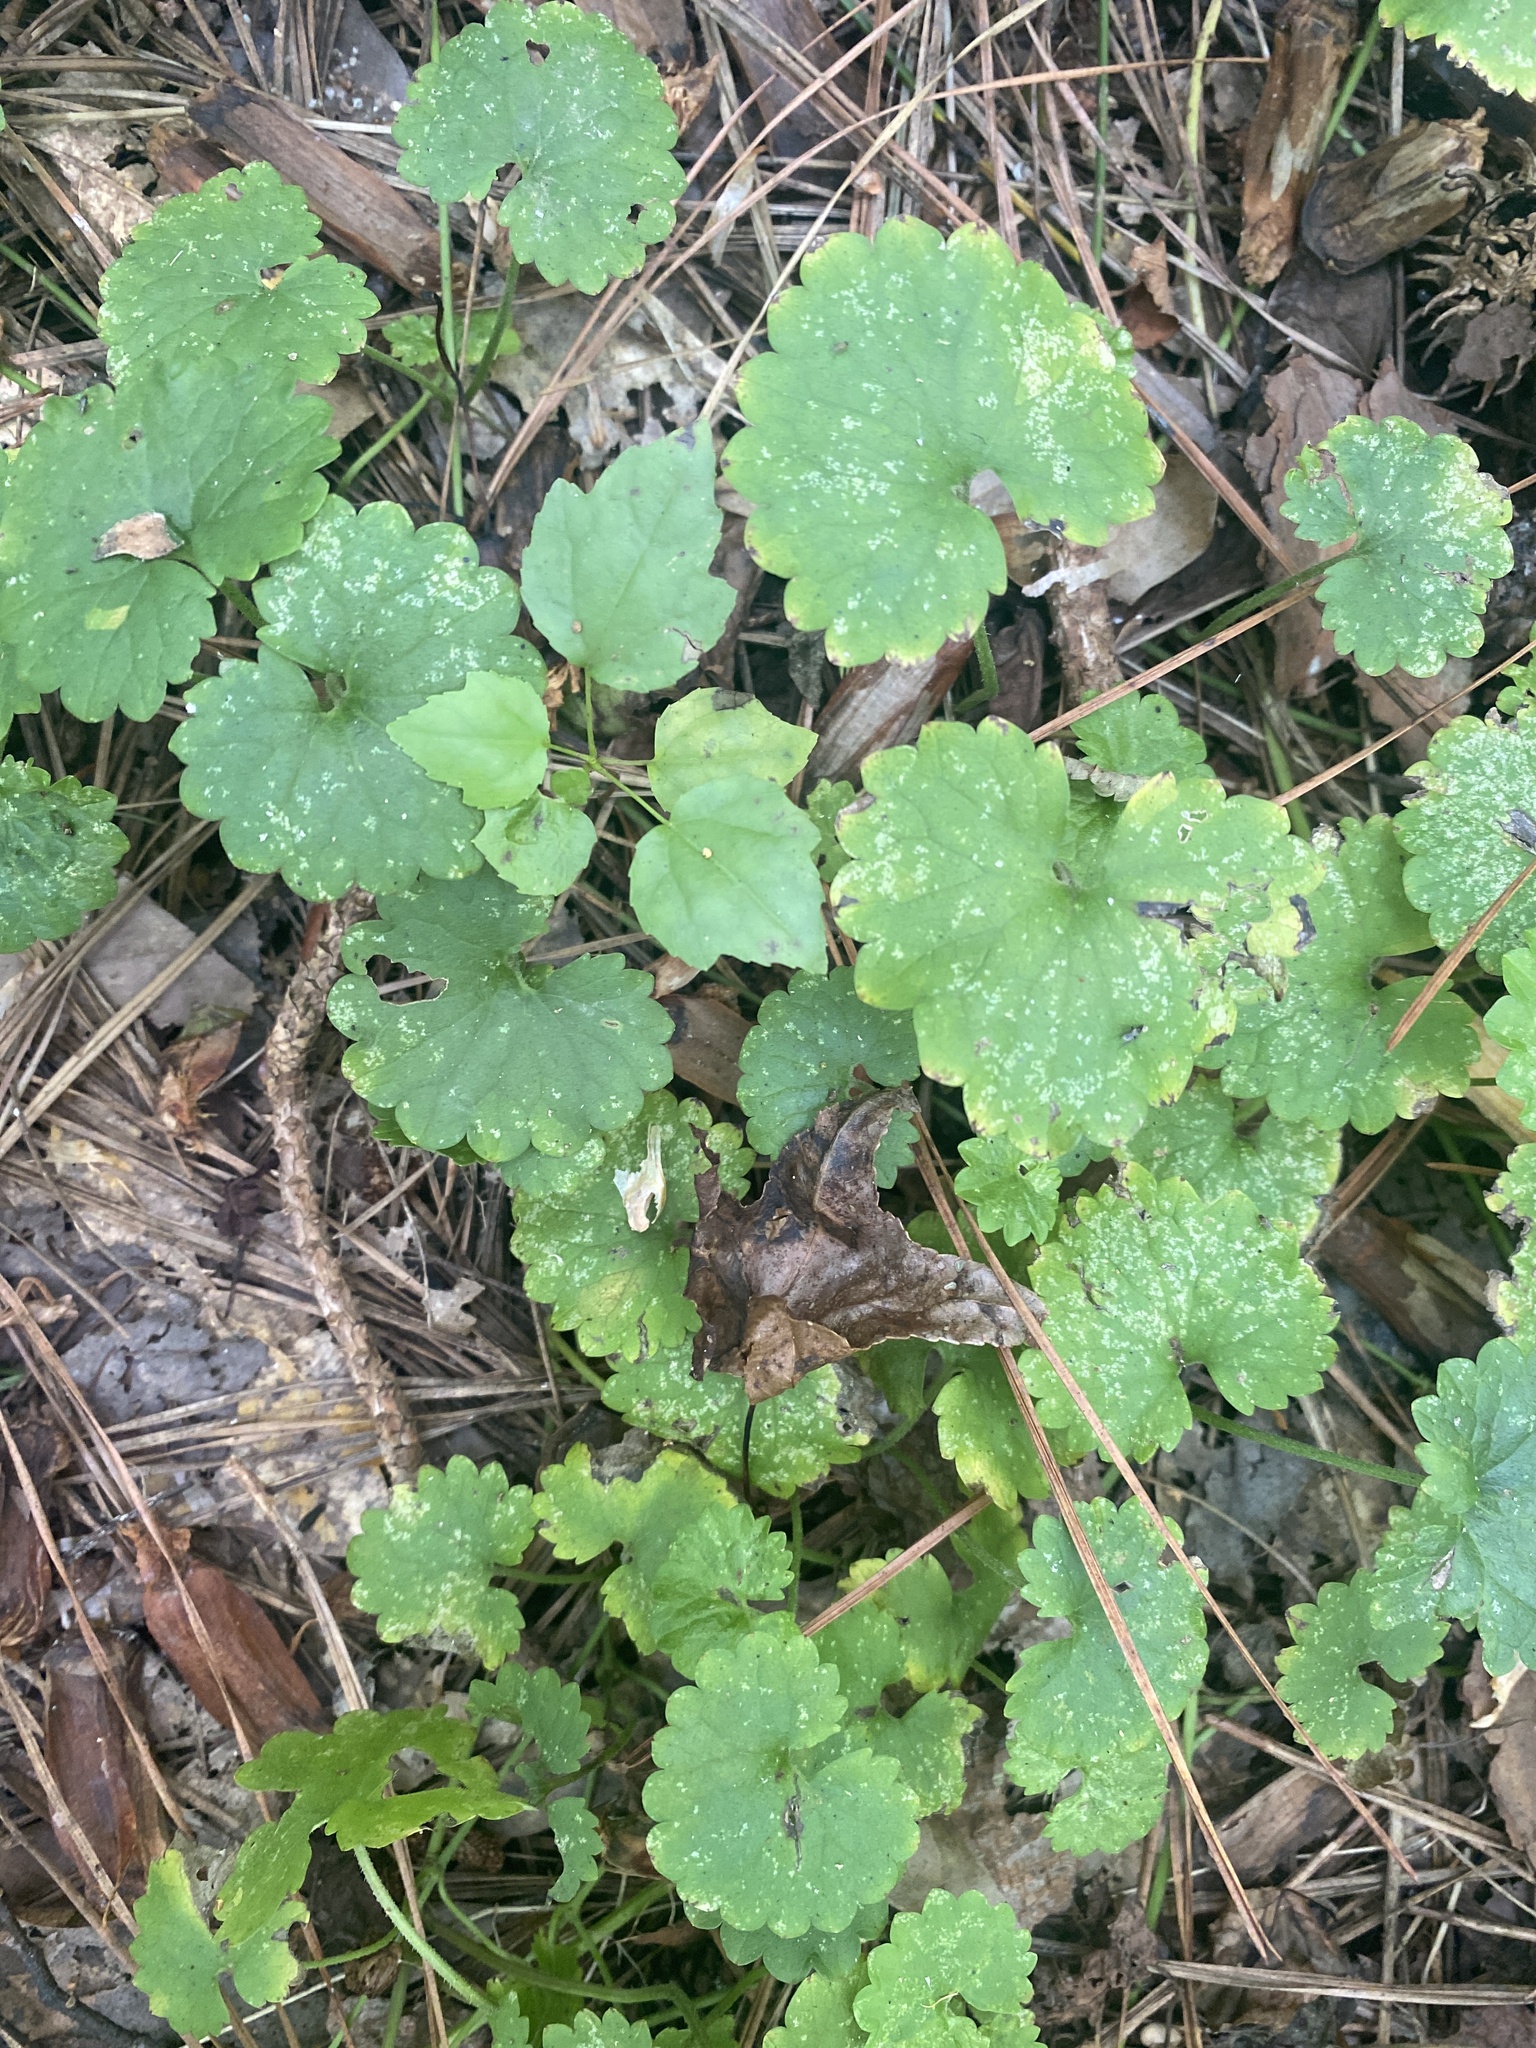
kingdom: Plantae
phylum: Tracheophyta
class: Magnoliopsida
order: Lamiales
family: Lamiaceae
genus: Glechoma
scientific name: Glechoma hederacea
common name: Ground ivy
